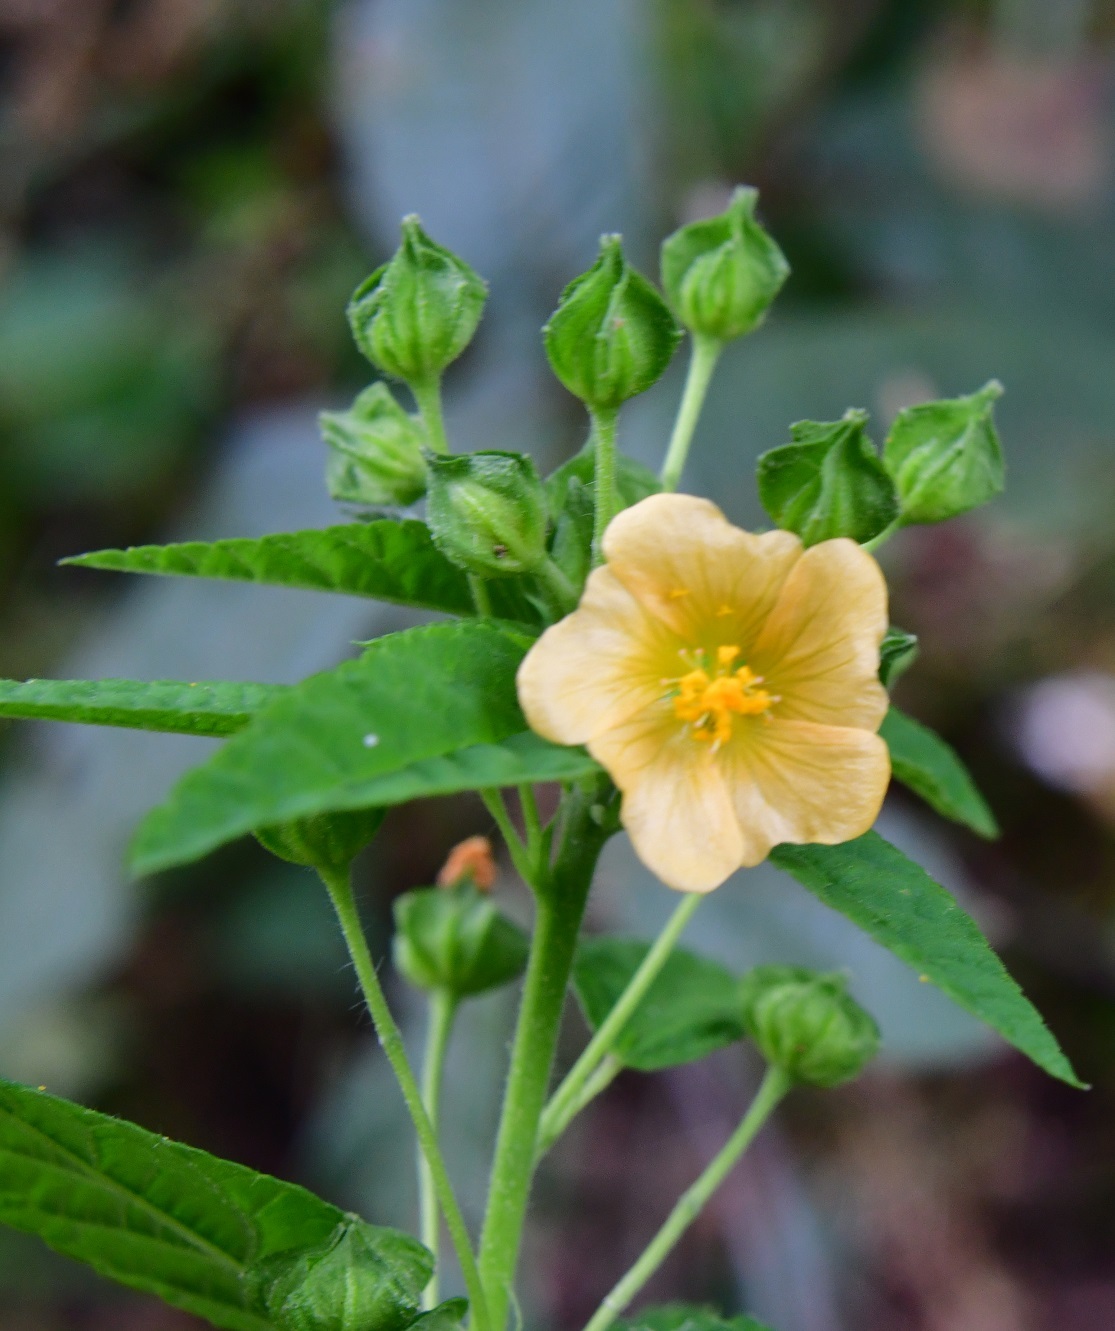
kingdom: Plantae
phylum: Tracheophyta
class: Magnoliopsida
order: Malvales
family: Malvaceae
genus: Sida
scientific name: Sida acuta
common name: Common wireweed
